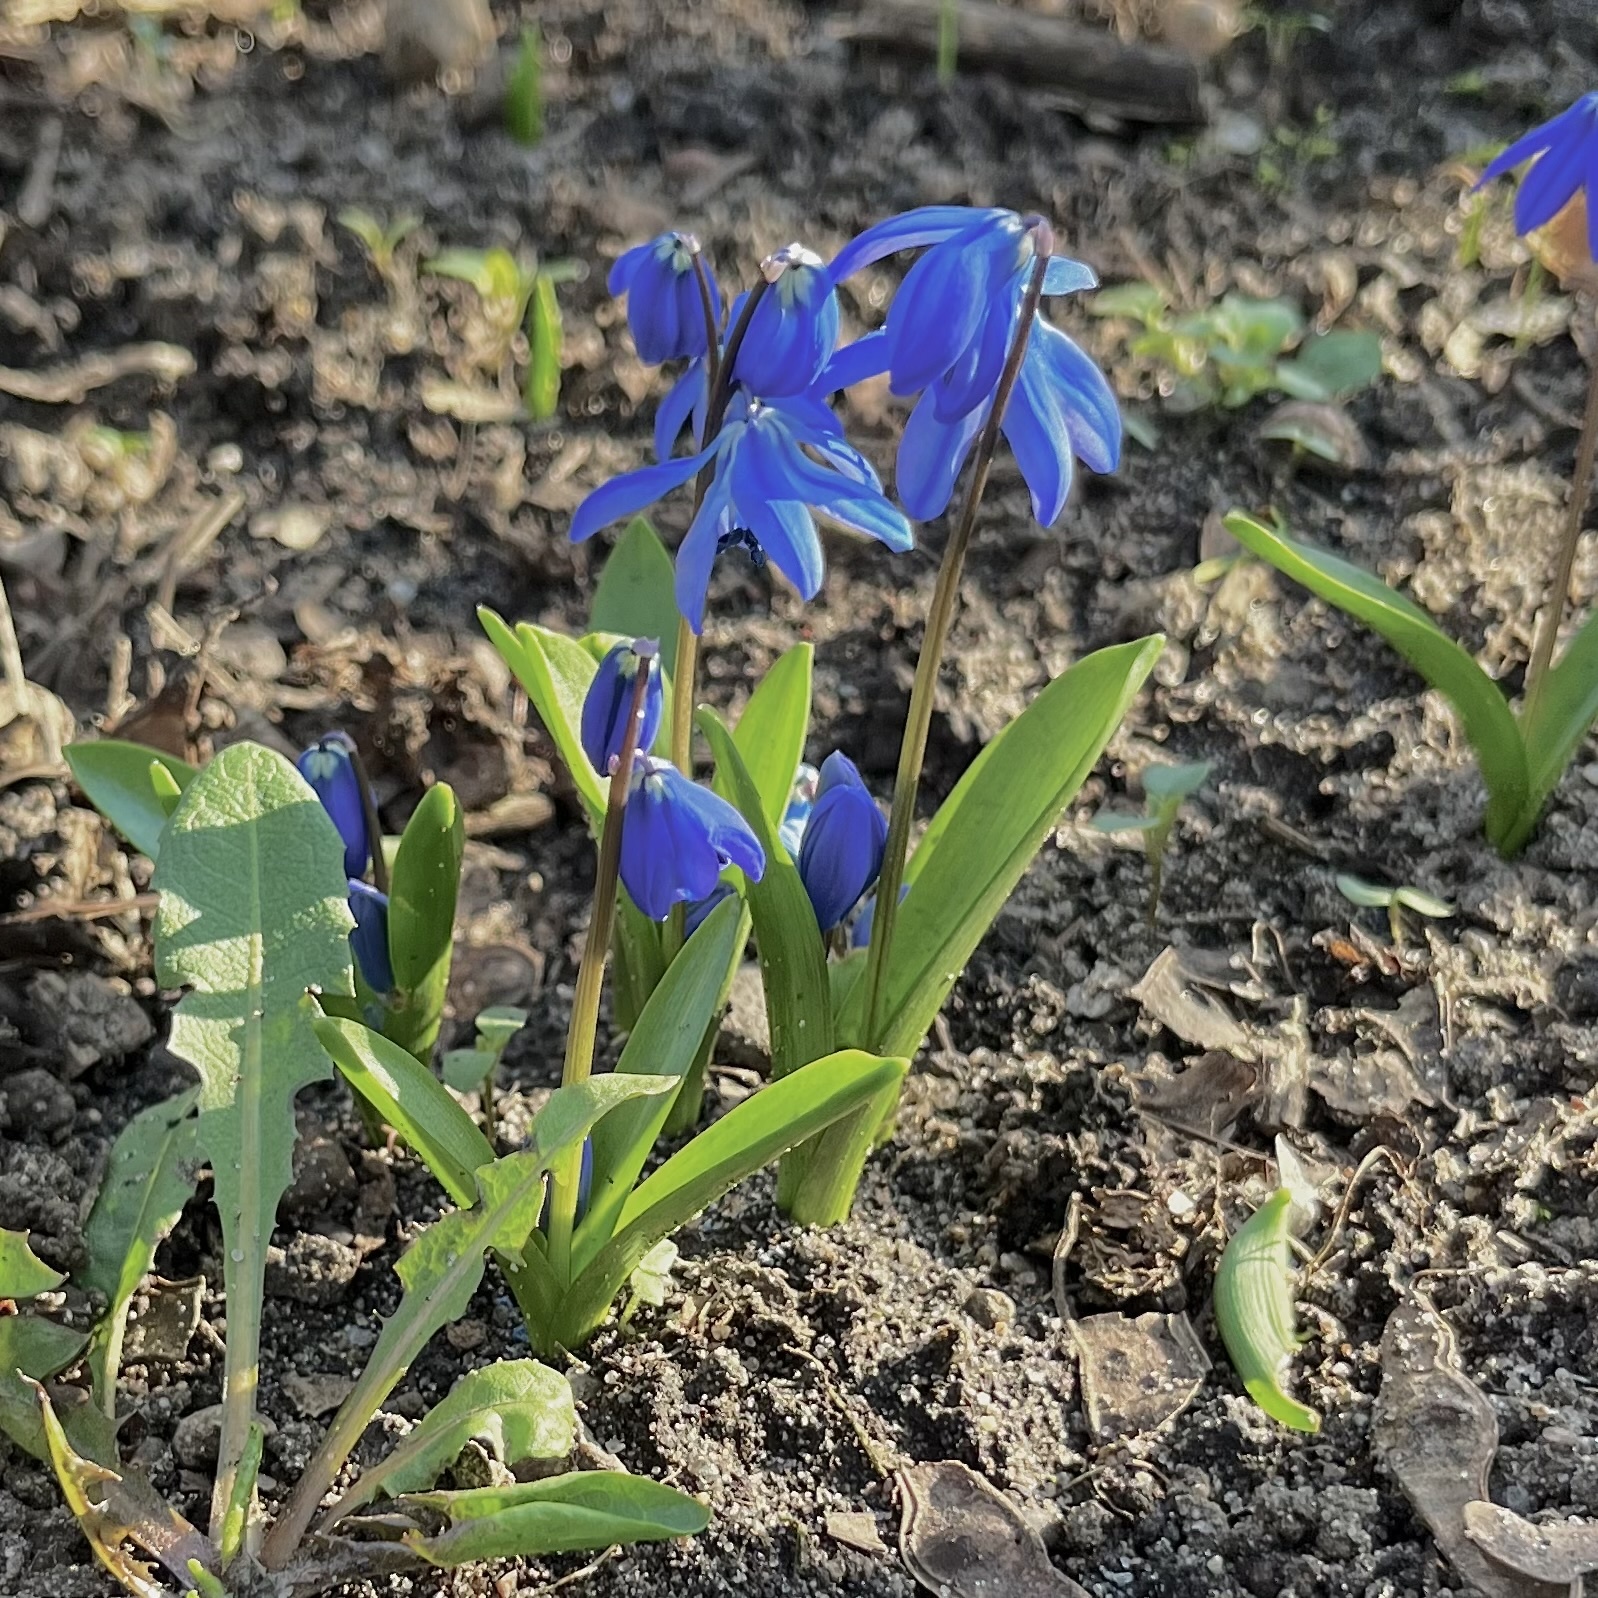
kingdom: Plantae
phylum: Tracheophyta
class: Liliopsida
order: Asparagales
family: Asparagaceae
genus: Scilla
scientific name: Scilla siberica
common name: Siberian squill
